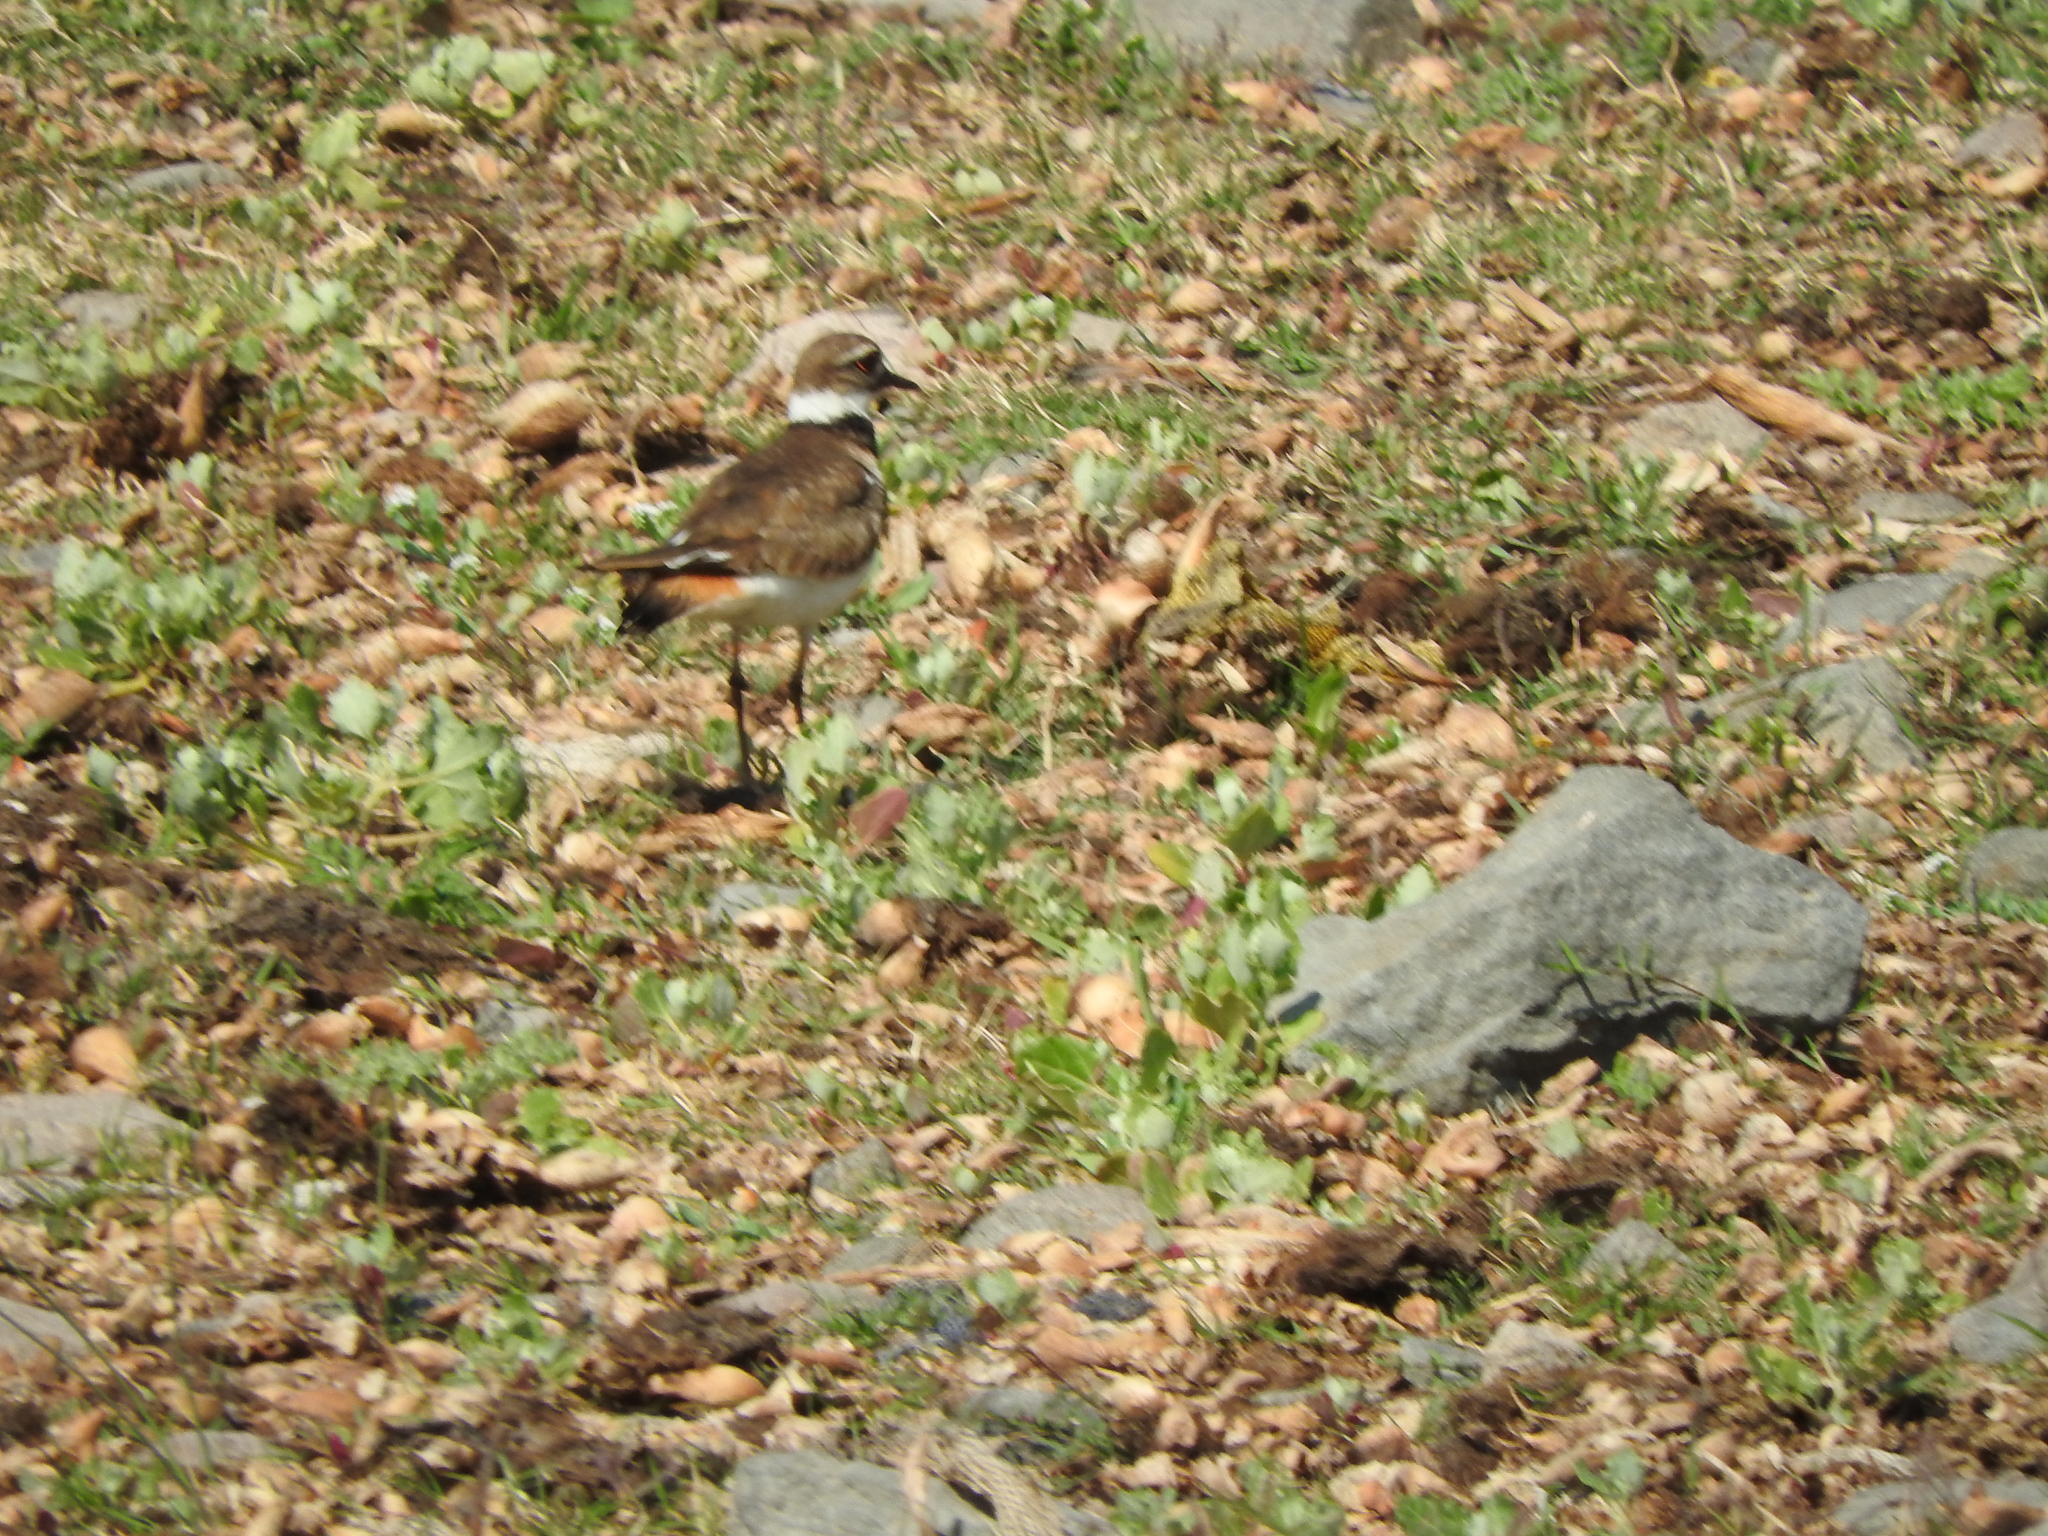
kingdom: Animalia
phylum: Chordata
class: Aves
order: Charadriiformes
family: Charadriidae
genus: Charadrius
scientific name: Charadrius vociferus
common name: Killdeer
